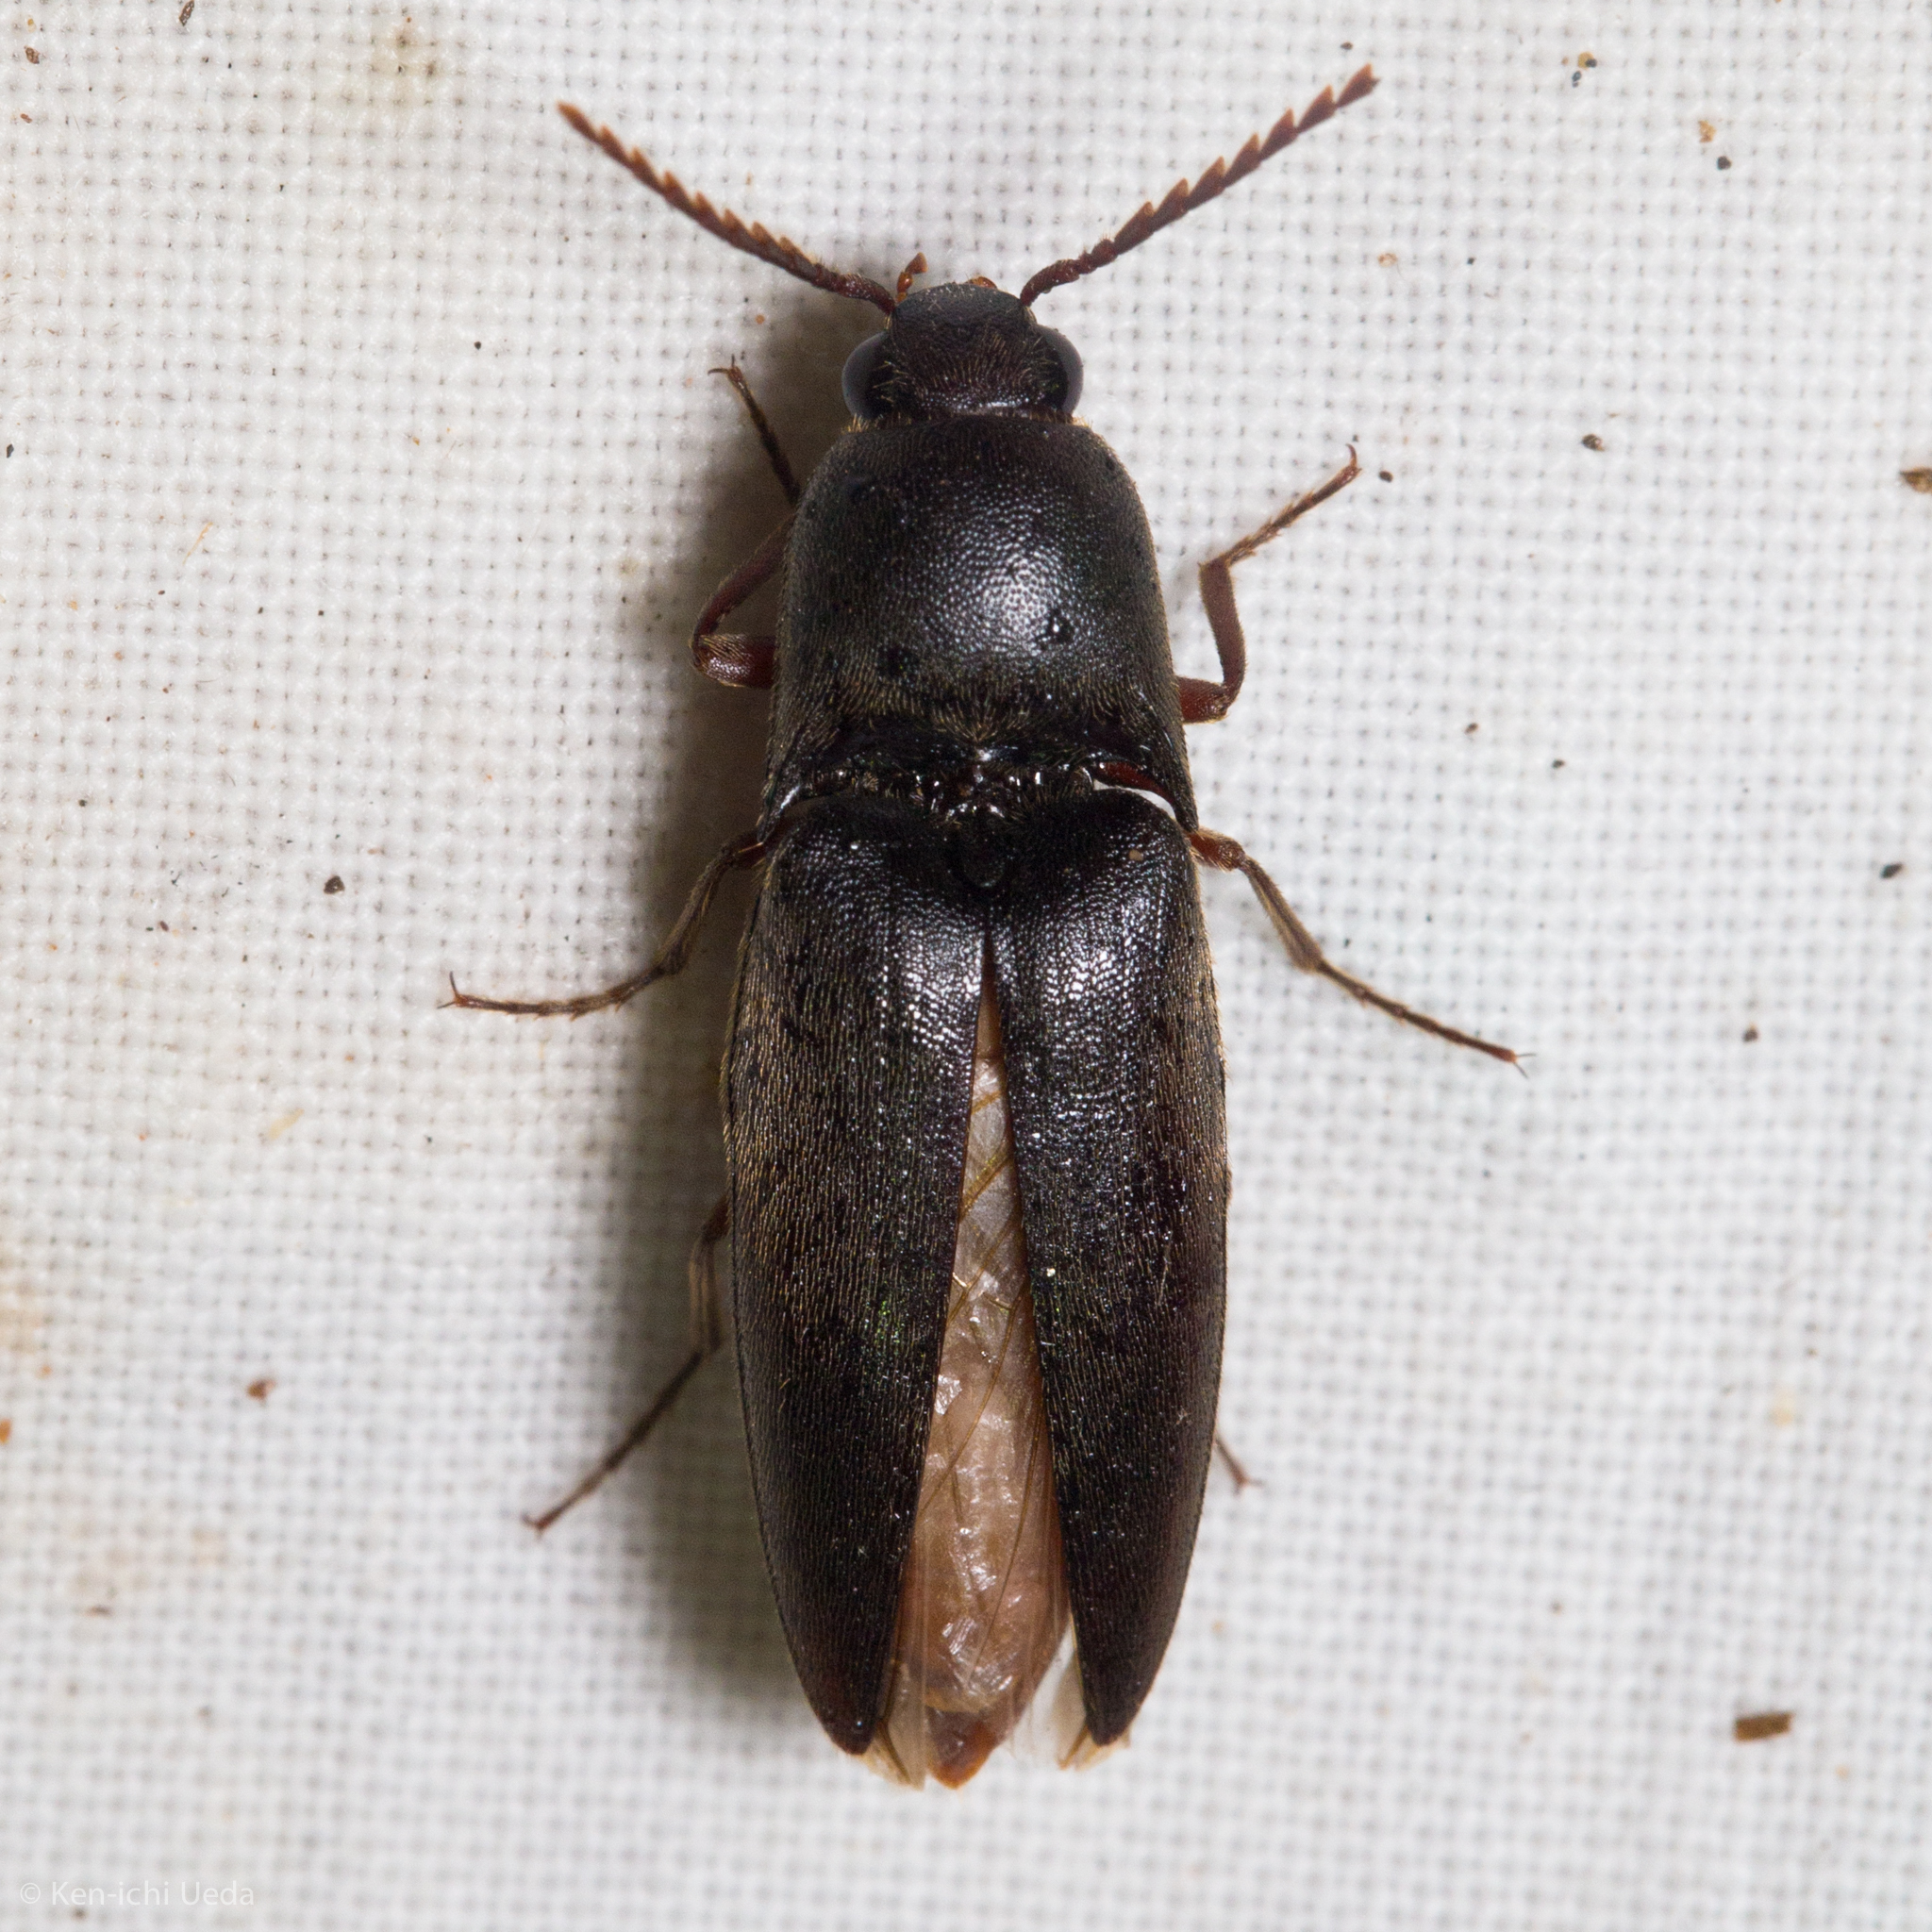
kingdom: Animalia
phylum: Arthropoda
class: Insecta
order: Coleoptera
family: Elateridae
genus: Diplostethus
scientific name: Diplostethus opacicollis
